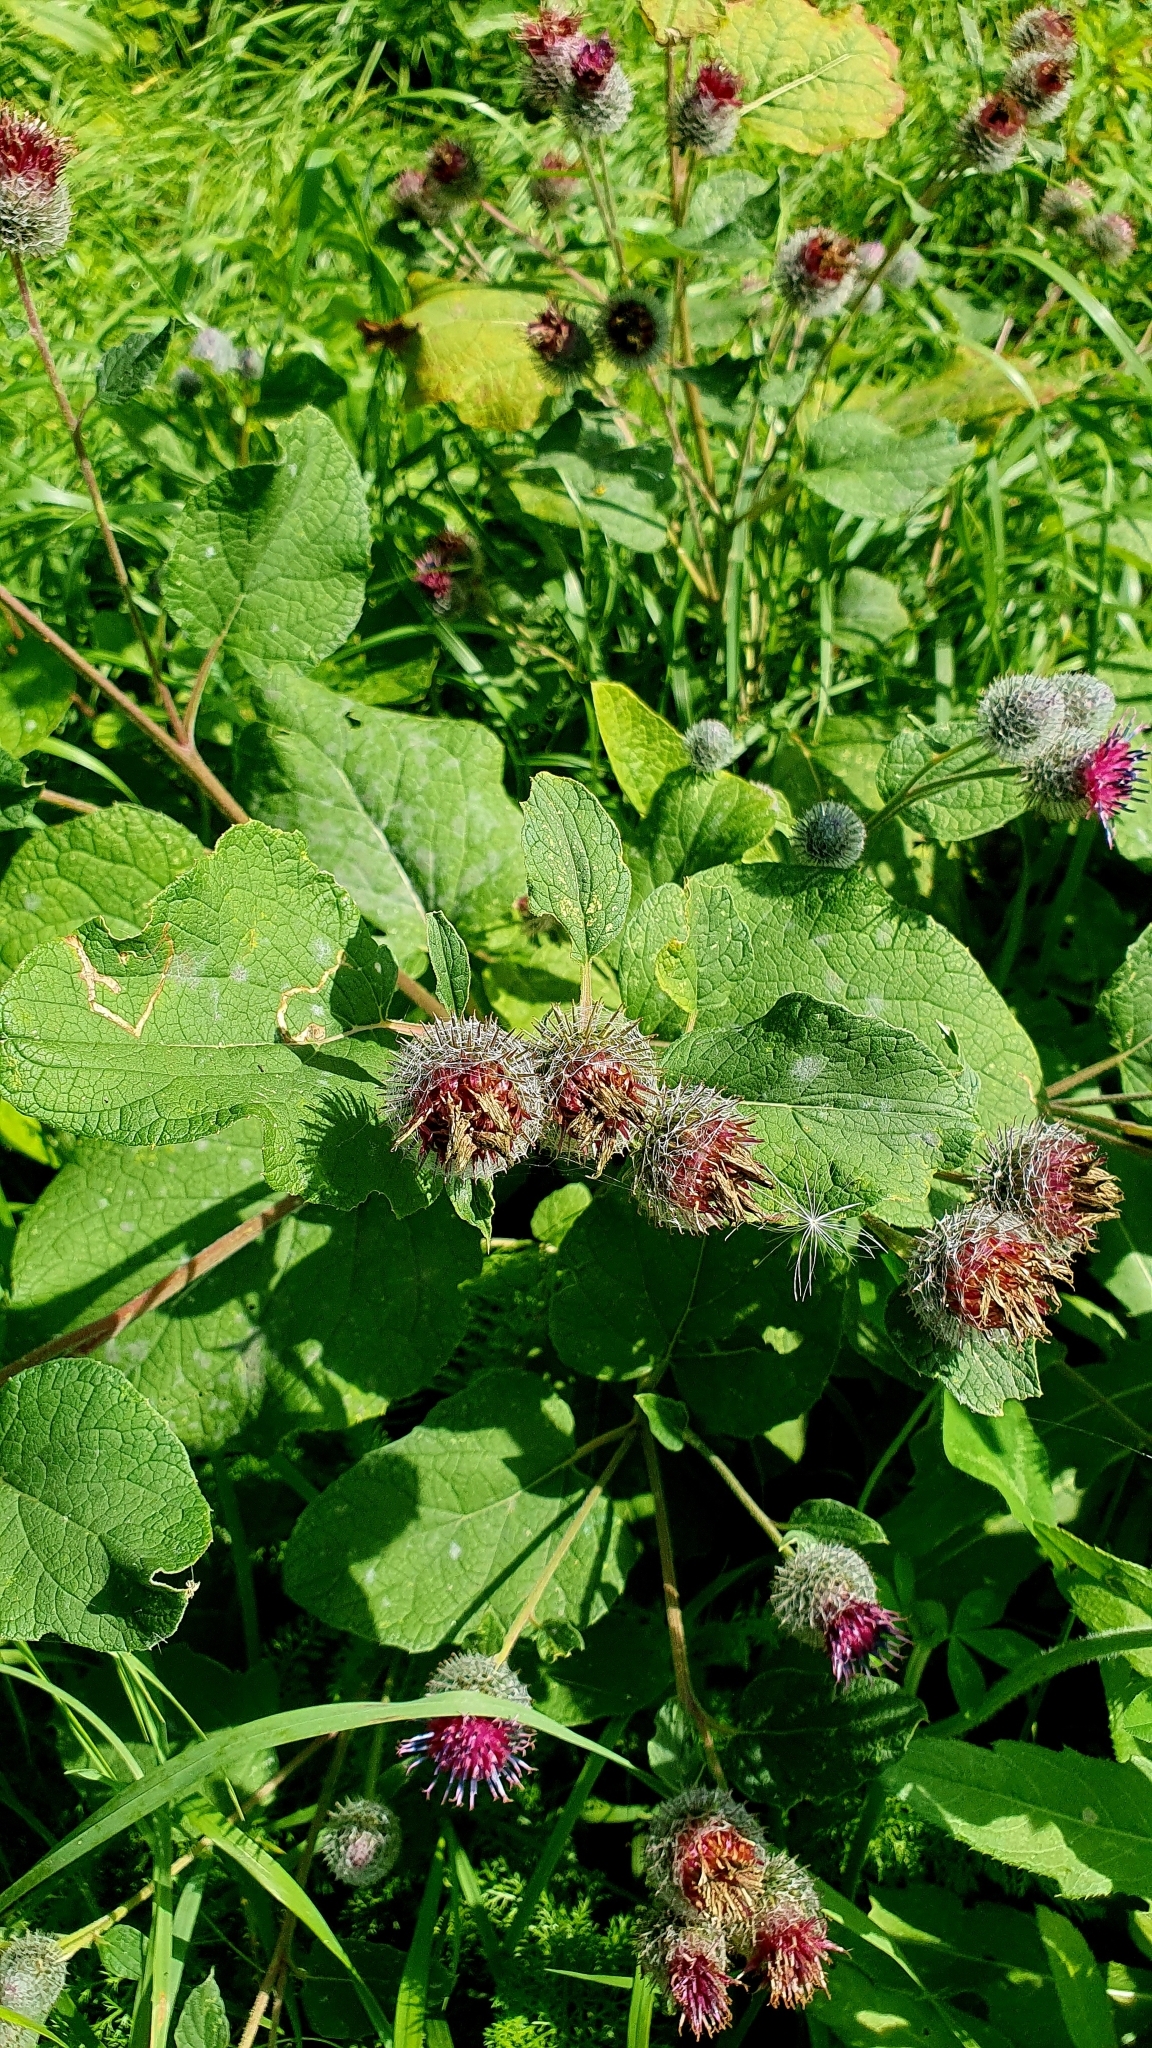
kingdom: Plantae
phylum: Tracheophyta
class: Magnoliopsida
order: Asterales
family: Asteraceae
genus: Arctium
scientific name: Arctium tomentosum
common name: Woolly burdock
